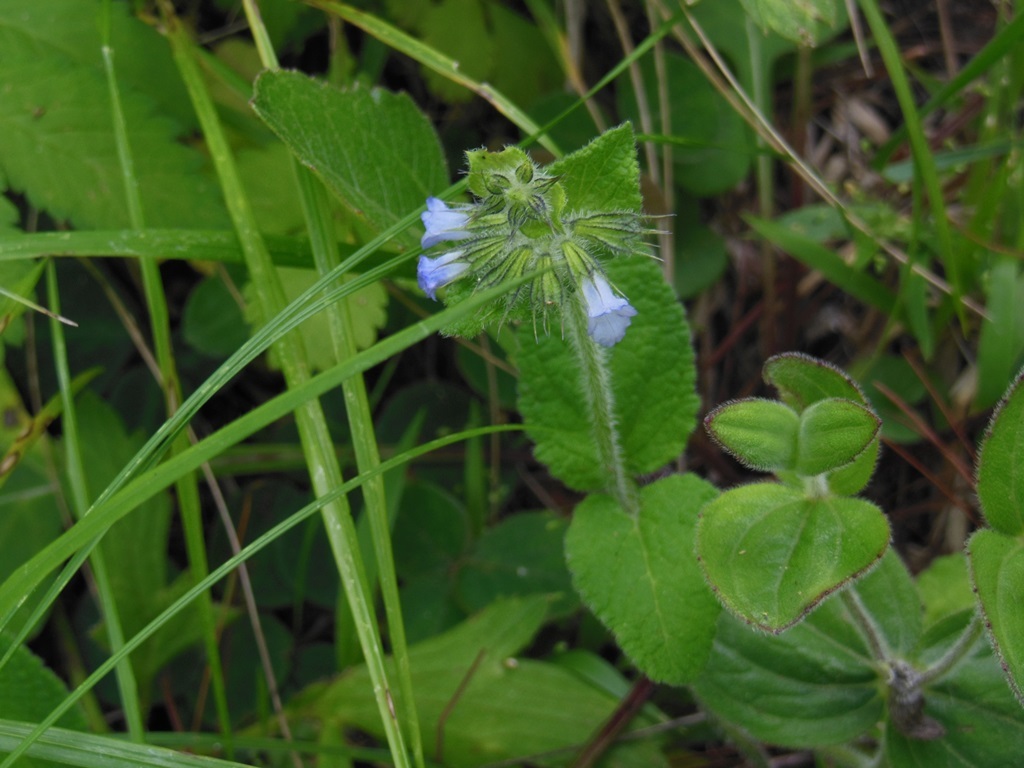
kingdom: Plantae
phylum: Tracheophyta
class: Magnoliopsida
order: Lamiales
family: Lamiaceae
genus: Lepechinia
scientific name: Lepechinia schiedeana
